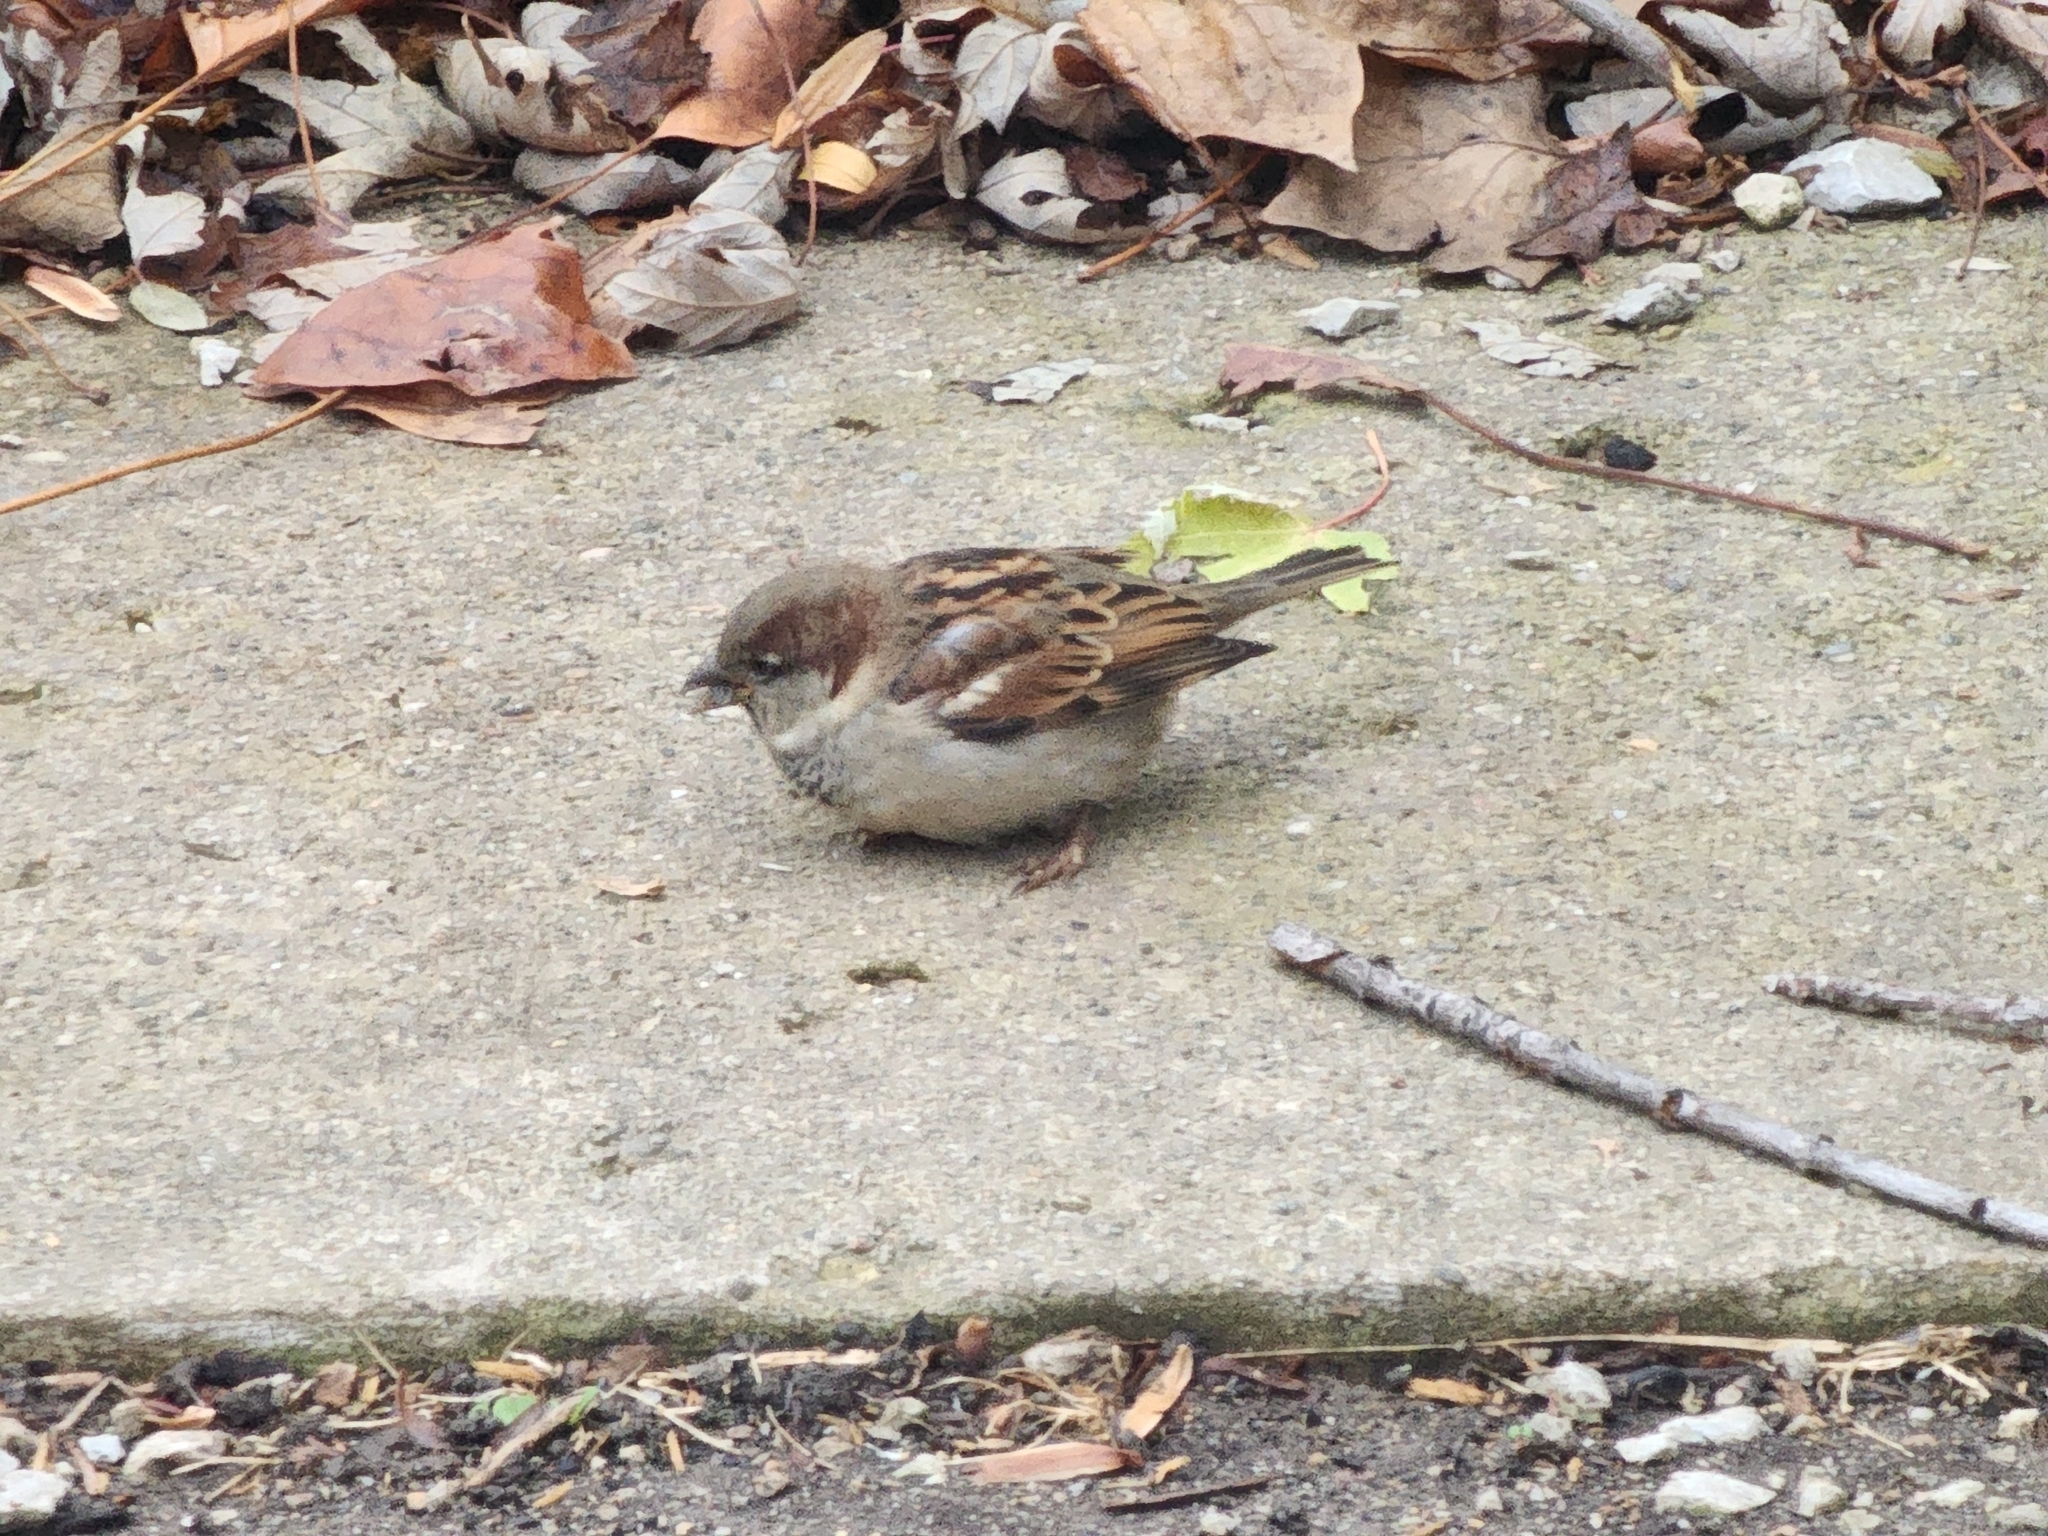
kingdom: Animalia
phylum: Chordata
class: Aves
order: Passeriformes
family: Passeridae
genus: Passer
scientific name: Passer domesticus
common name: House sparrow
